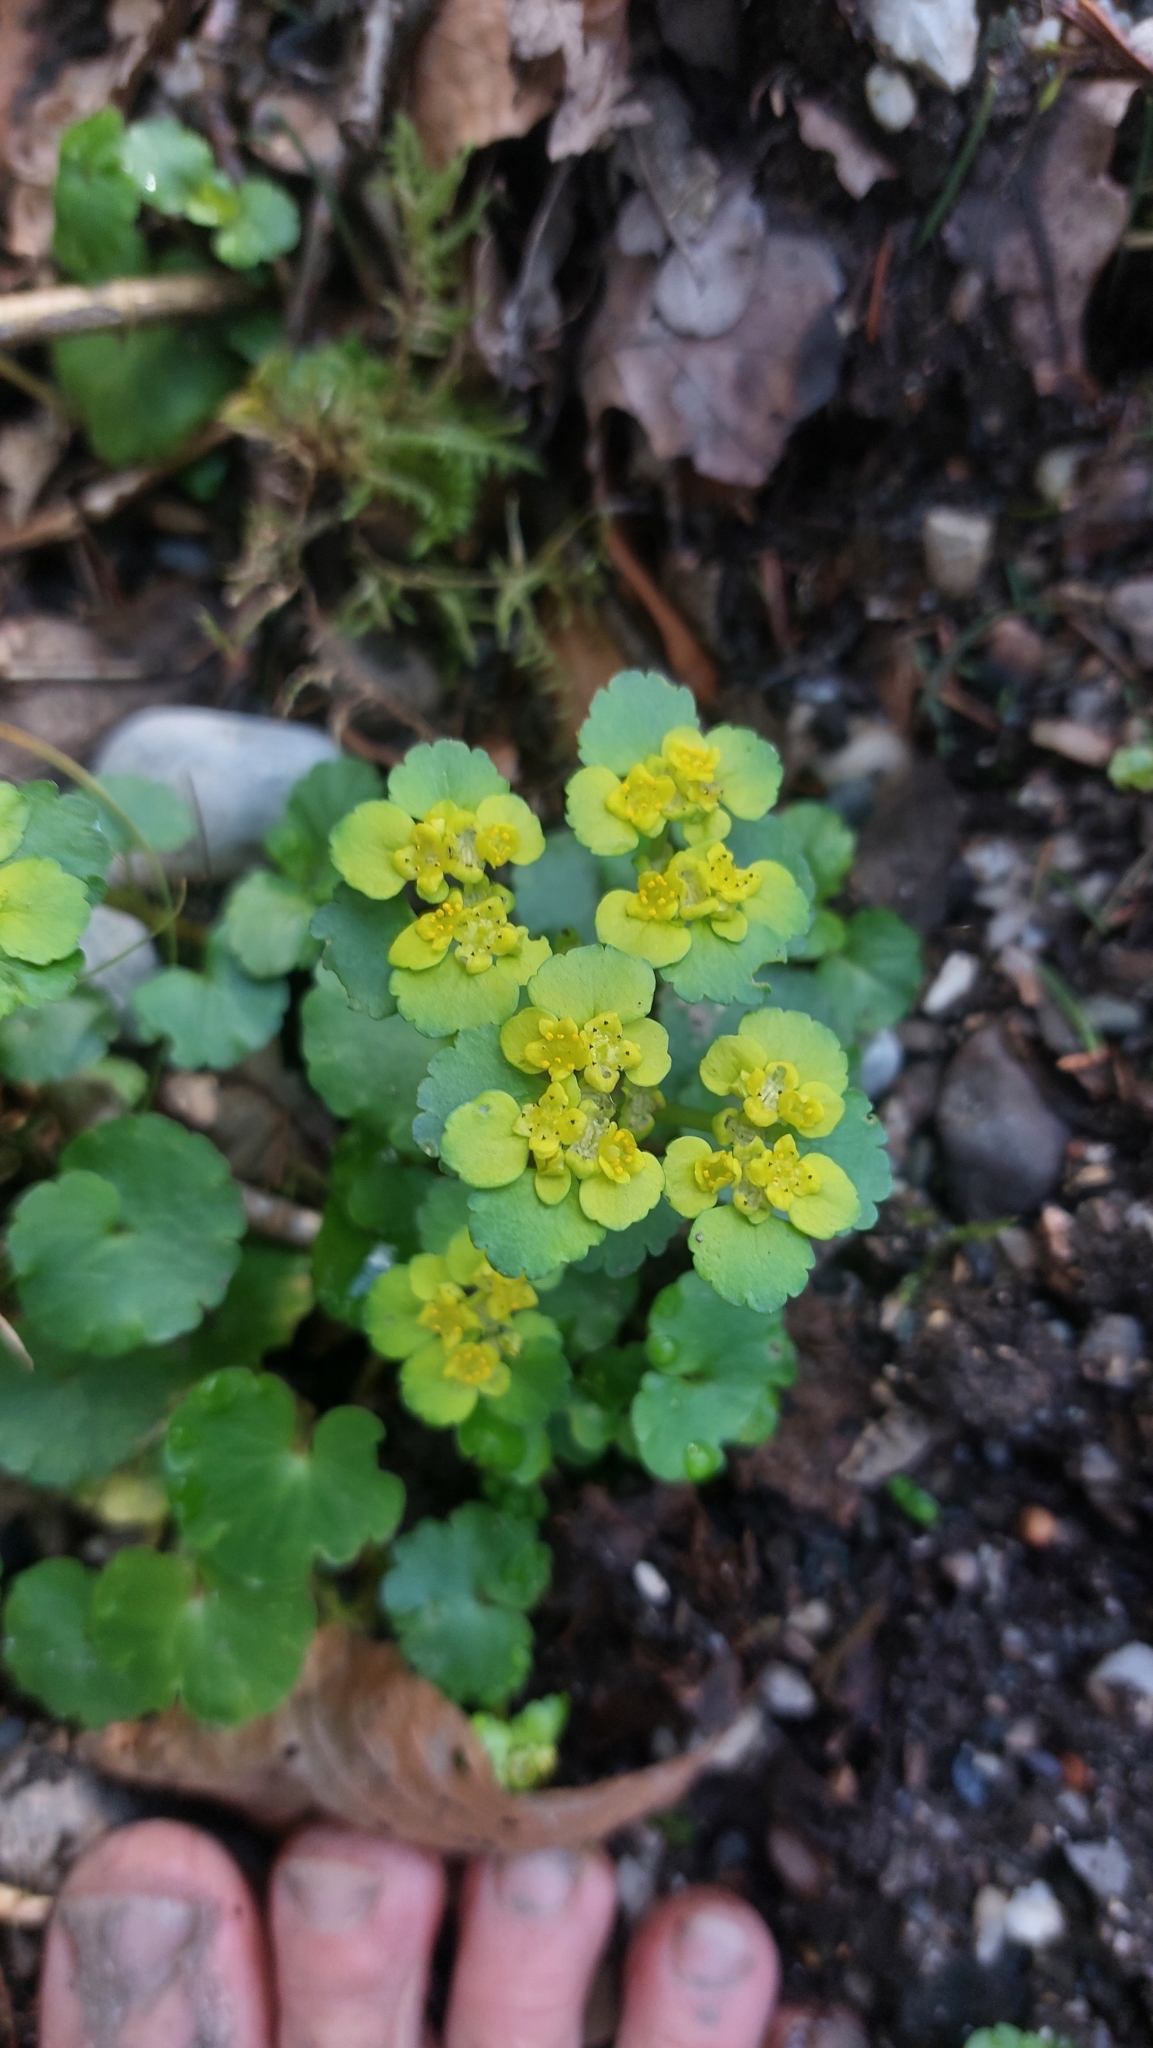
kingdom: Plantae
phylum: Tracheophyta
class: Magnoliopsida
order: Saxifragales
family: Saxifragaceae
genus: Chrysosplenium
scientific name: Chrysosplenium alternifolium
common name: Alternate-leaved golden-saxifrage
